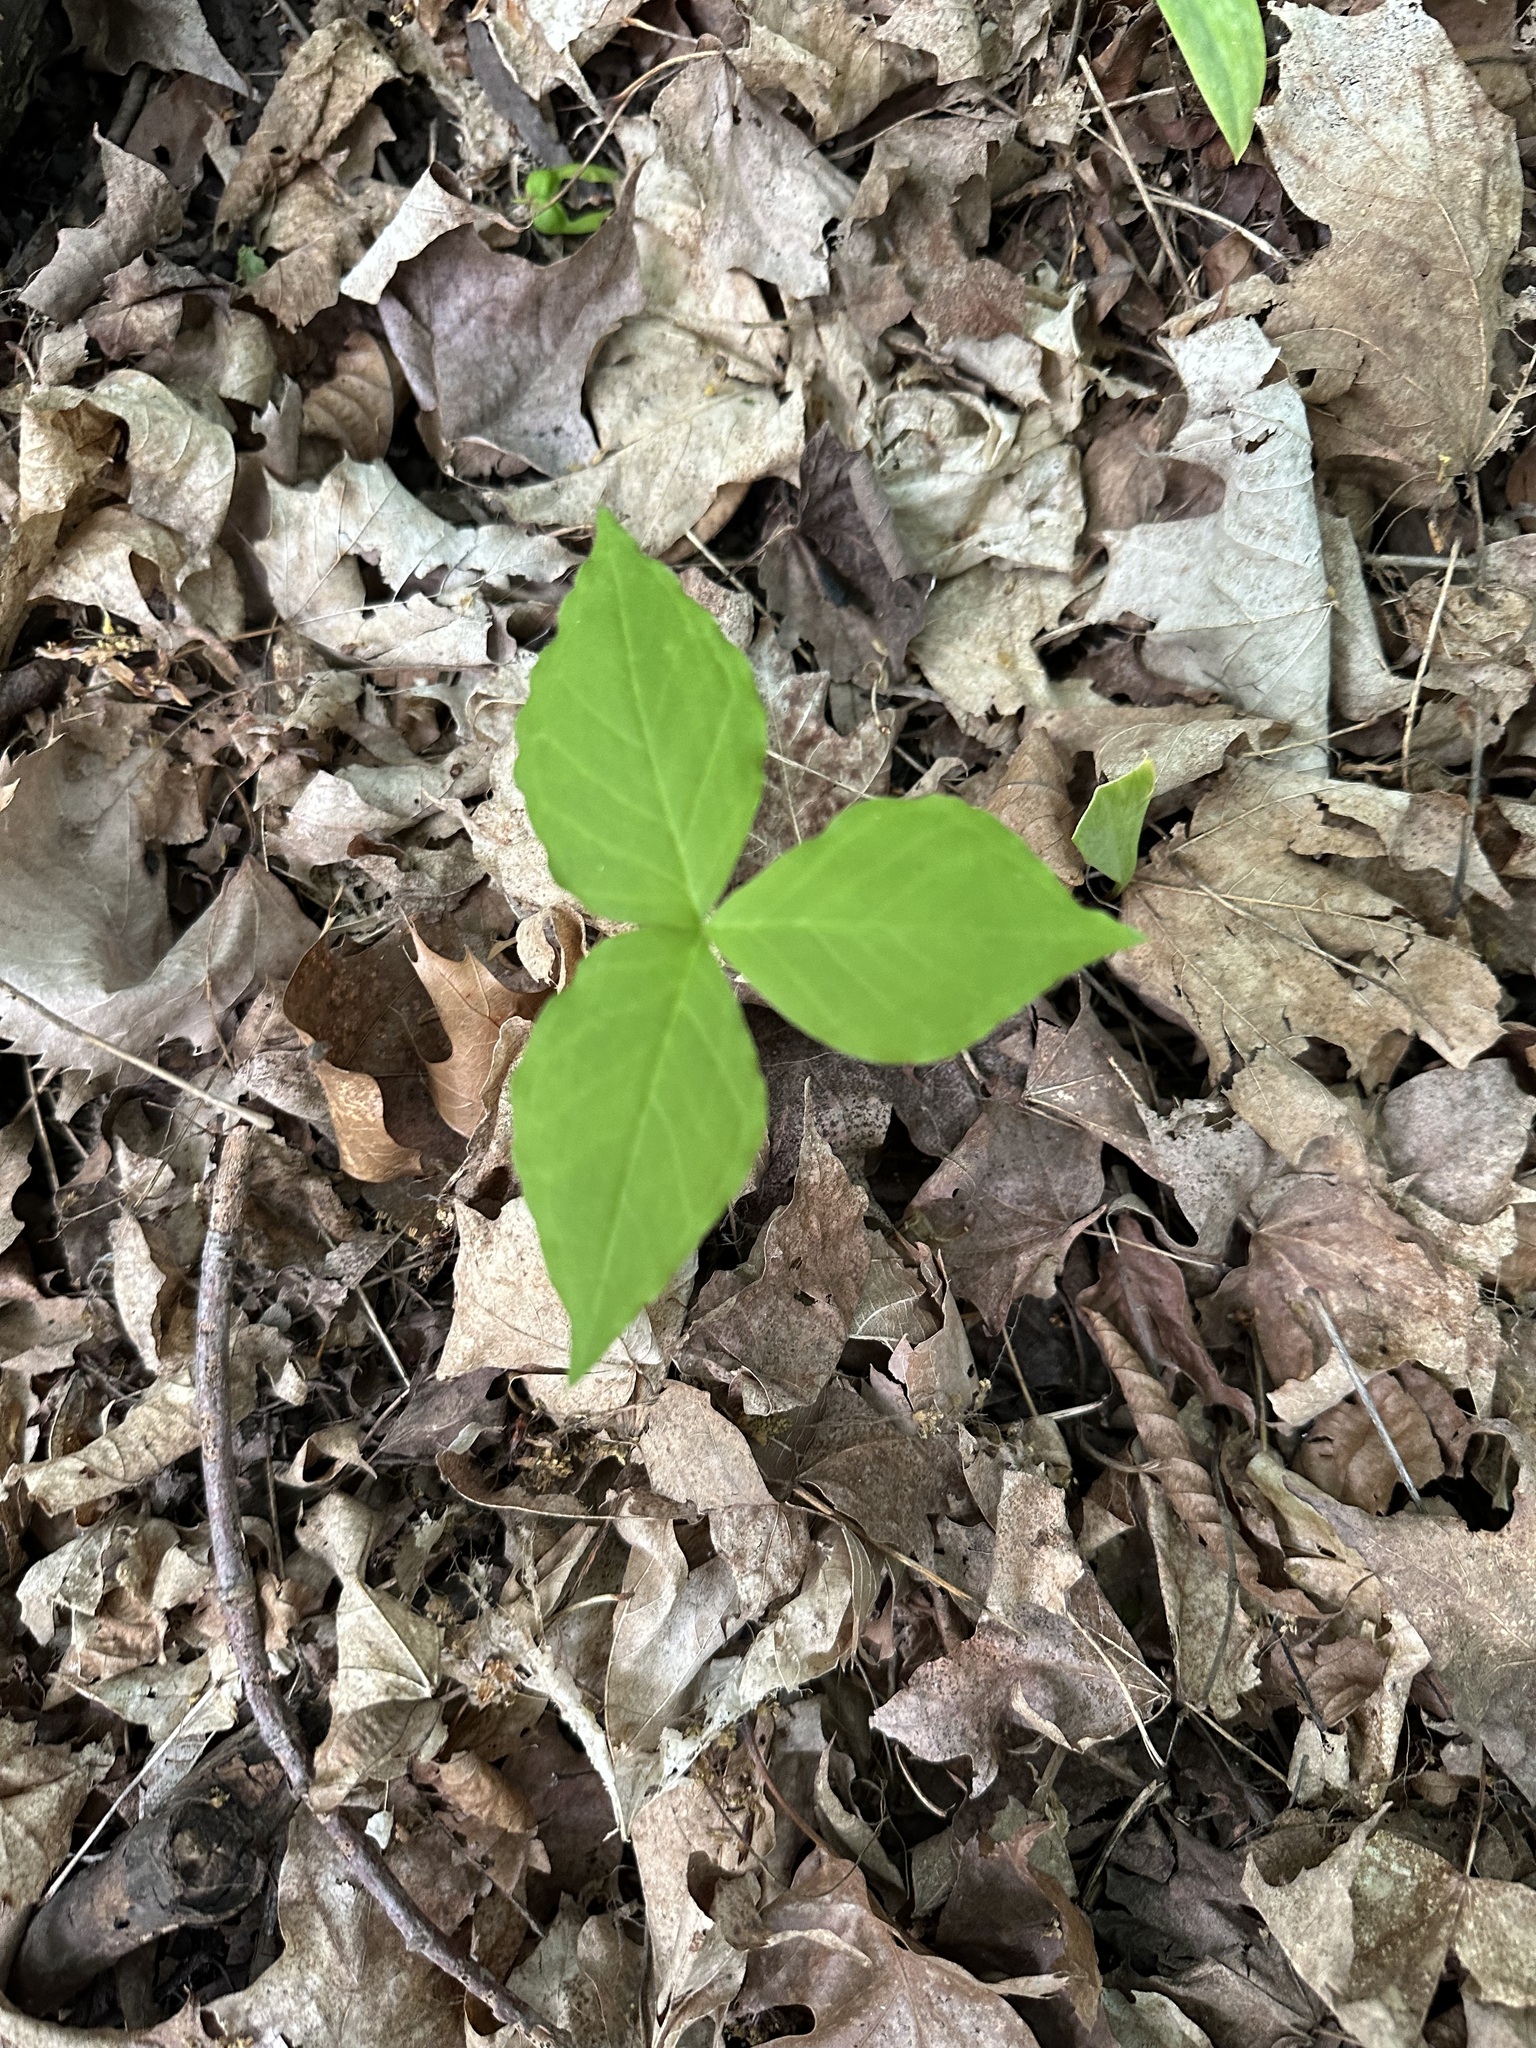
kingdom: Plantae
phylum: Tracheophyta
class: Liliopsida
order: Alismatales
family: Araceae
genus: Arisaema
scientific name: Arisaema triphyllum
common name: Jack-in-the-pulpit
